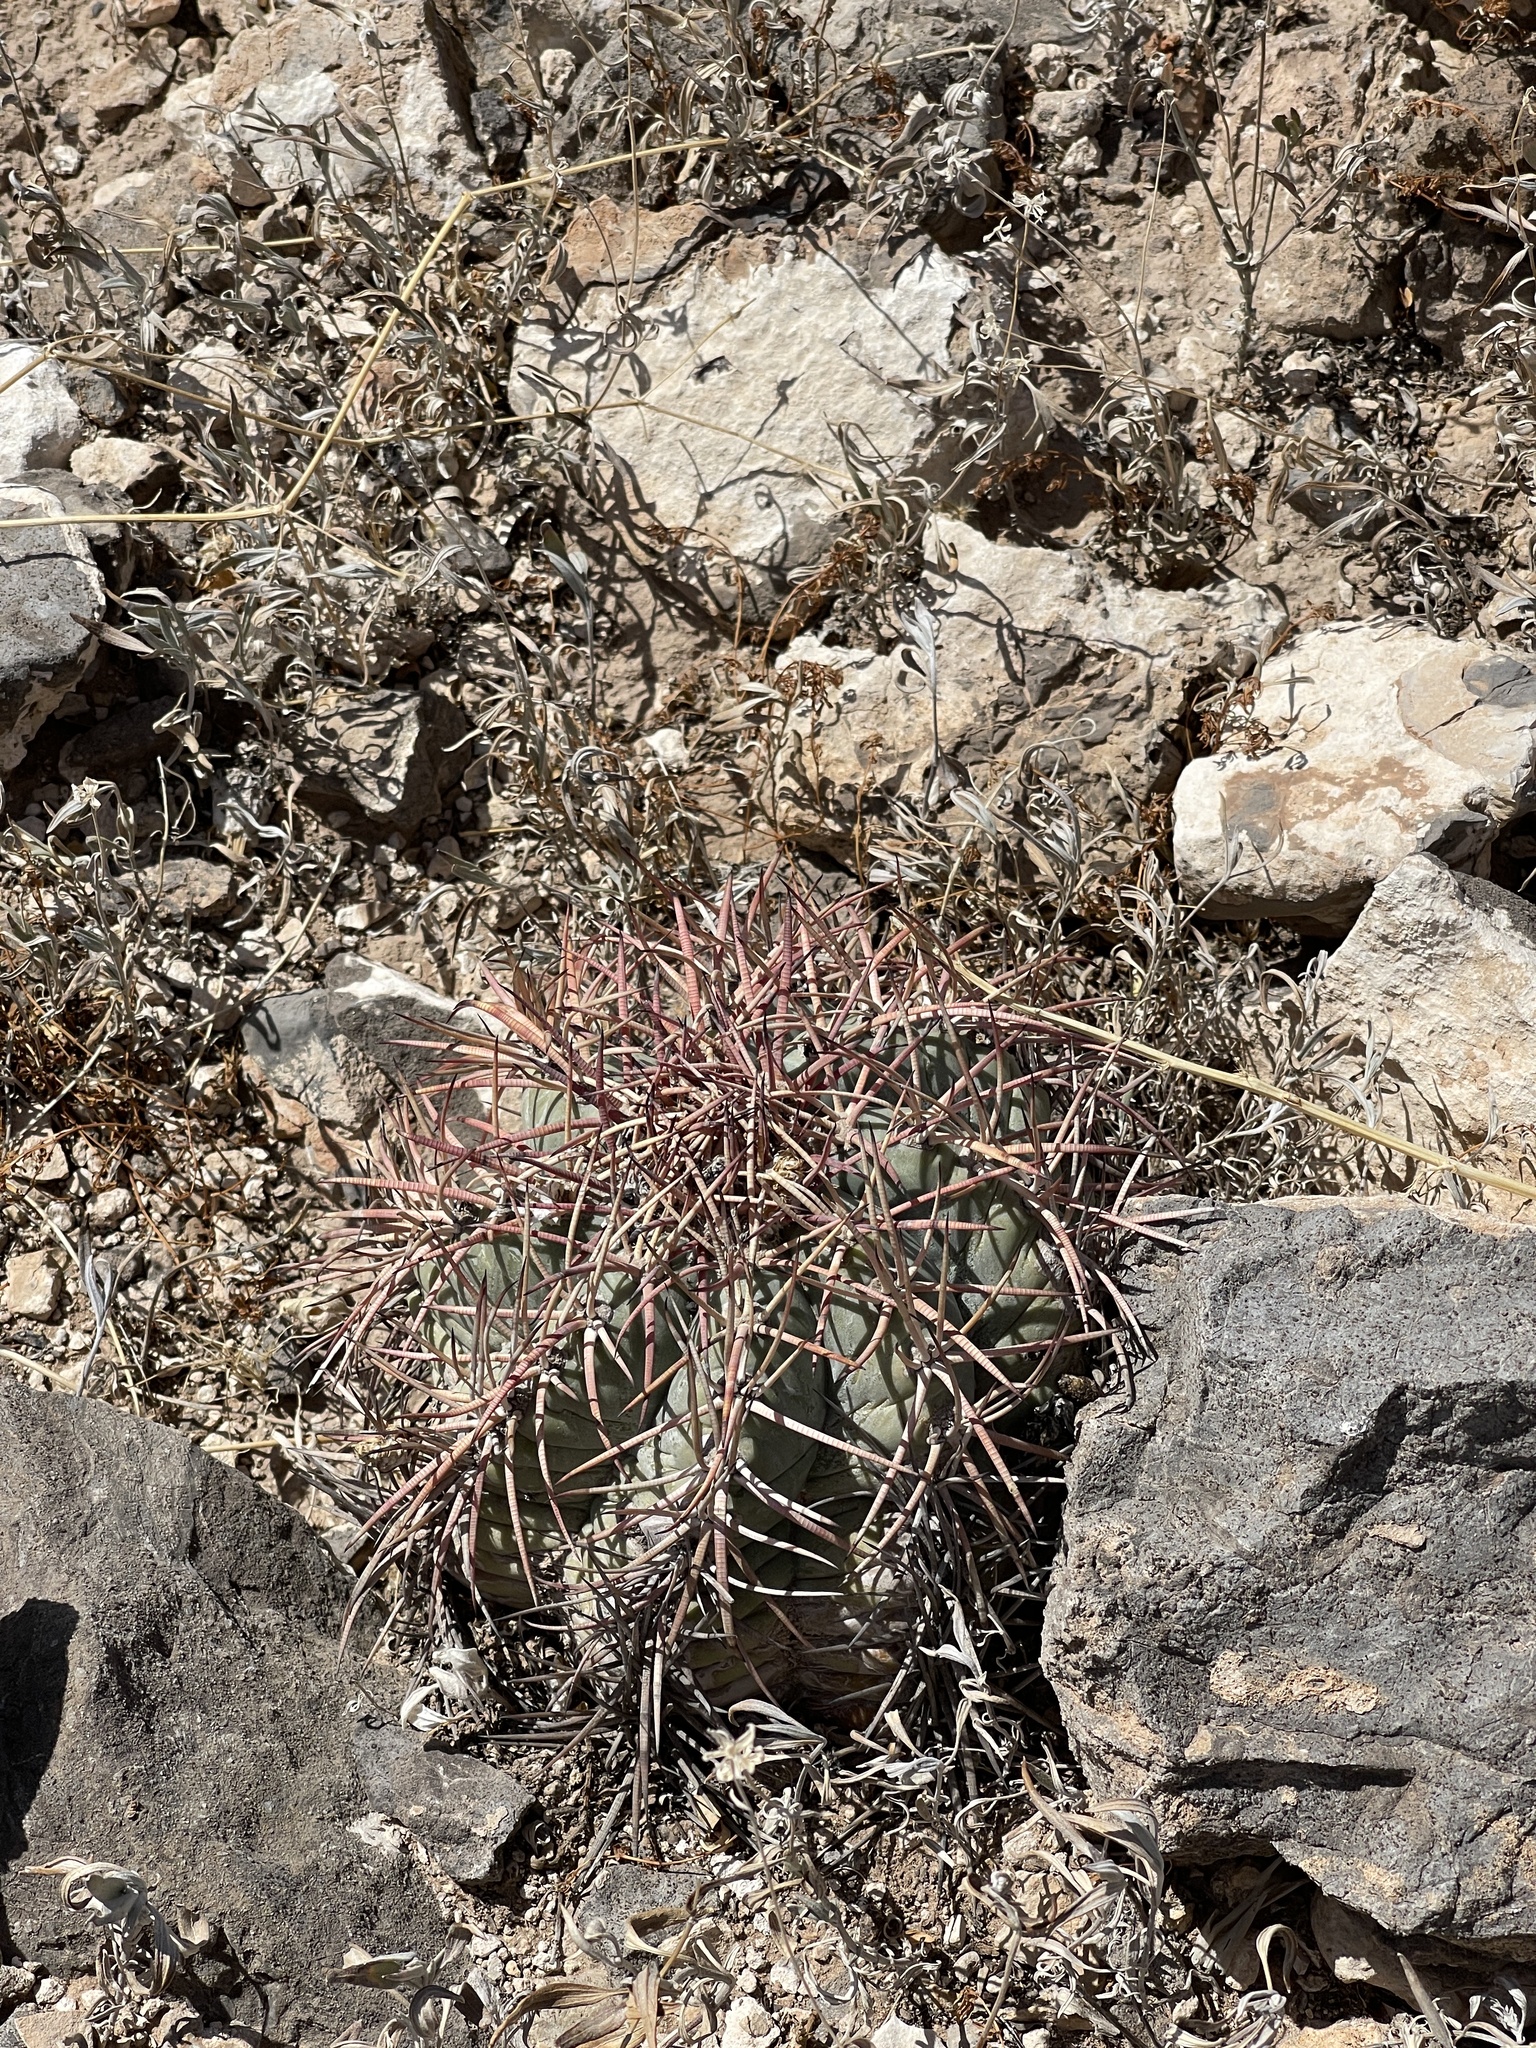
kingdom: Plantae
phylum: Tracheophyta
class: Magnoliopsida
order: Caryophyllales
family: Cactaceae
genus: Echinocactus
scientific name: Echinocactus horizonthalonius
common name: Devilshead
